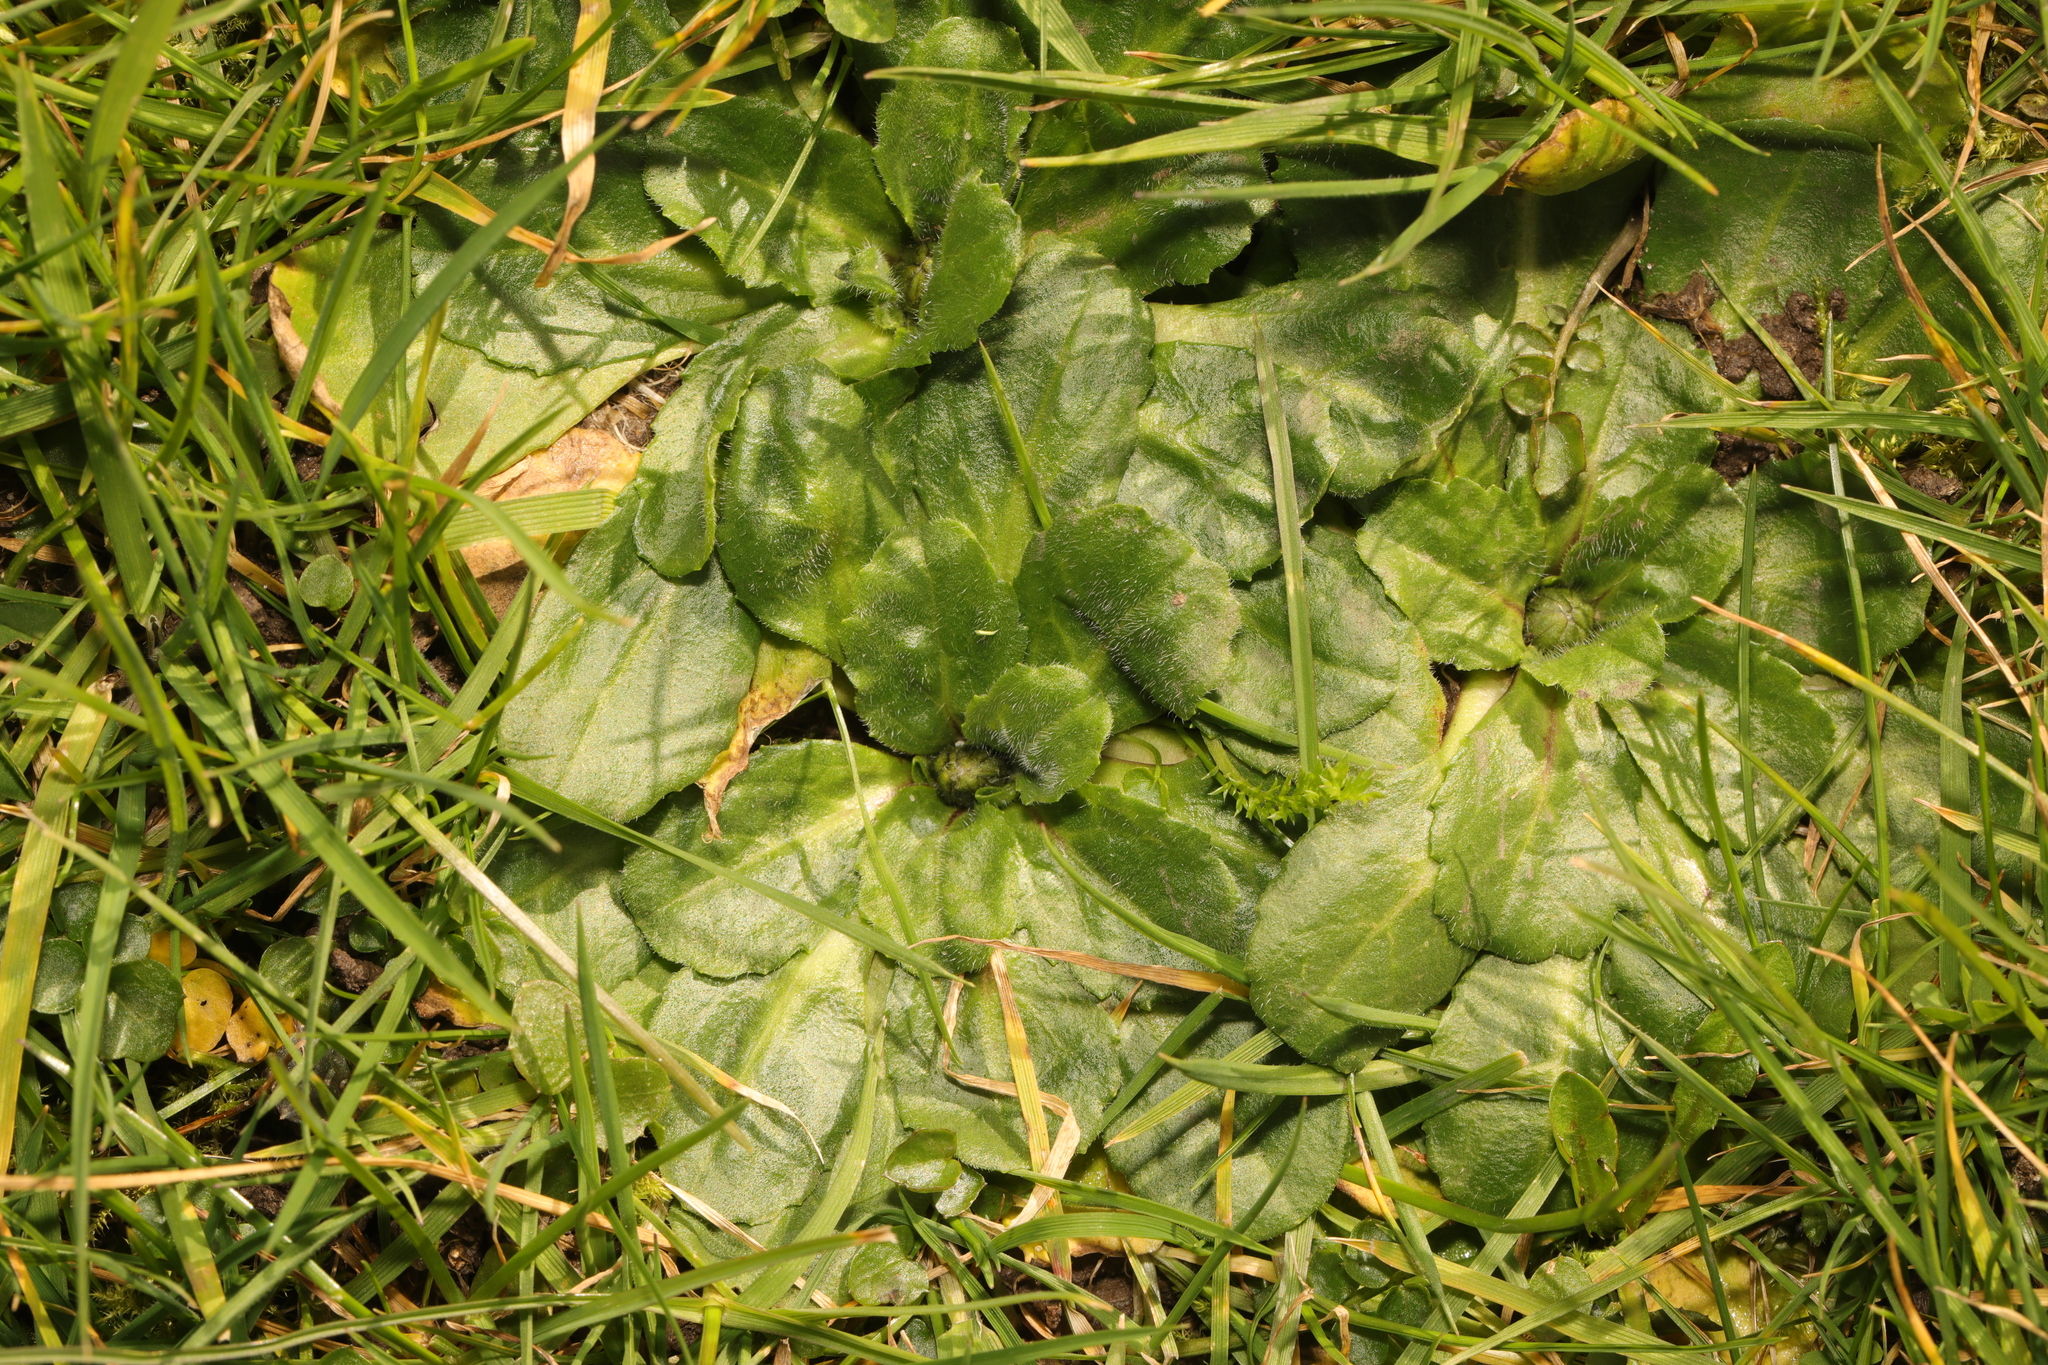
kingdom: Plantae
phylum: Tracheophyta
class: Magnoliopsida
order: Asterales
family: Asteraceae
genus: Bellis
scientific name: Bellis perennis
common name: Lawndaisy
